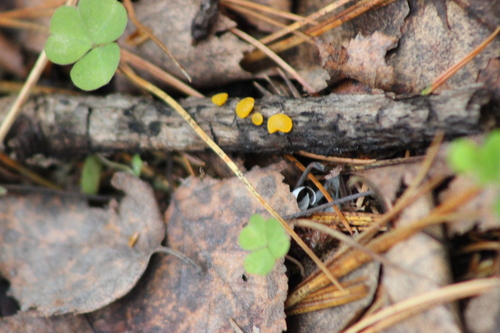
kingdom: Fungi
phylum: Basidiomycota
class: Dacrymycetes
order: Dacrymycetales
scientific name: Dacrymycetales
